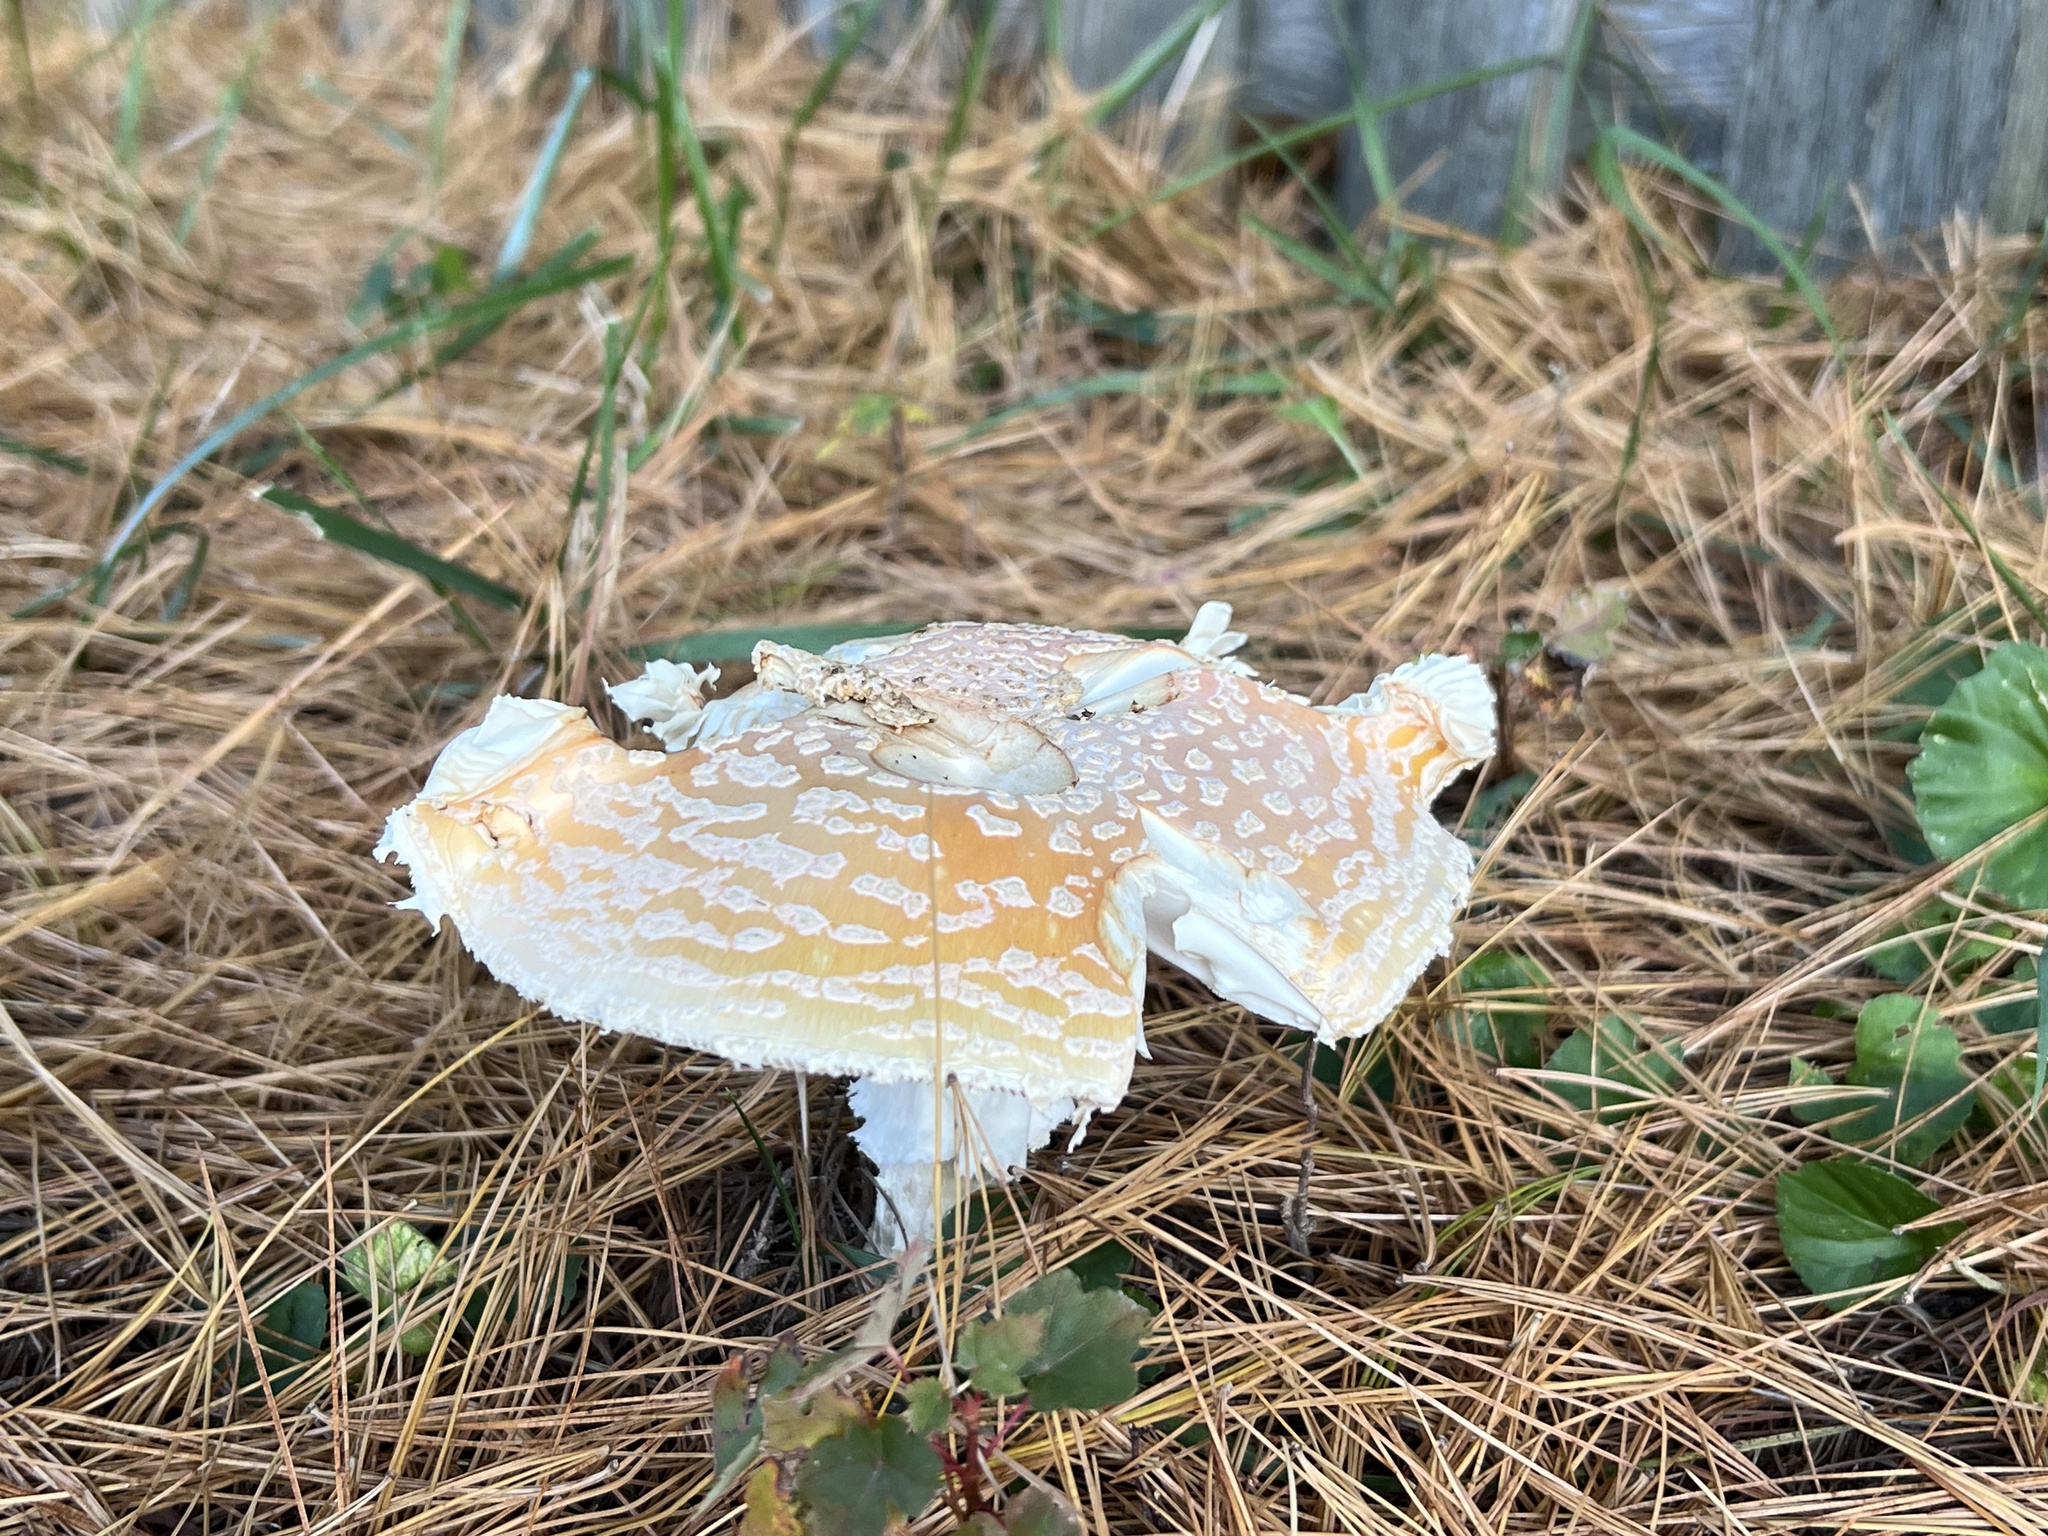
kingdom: Fungi
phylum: Basidiomycota
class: Agaricomycetes
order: Agaricales
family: Amanitaceae
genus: Amanita
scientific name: Amanita muscaria
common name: Fly agaric
